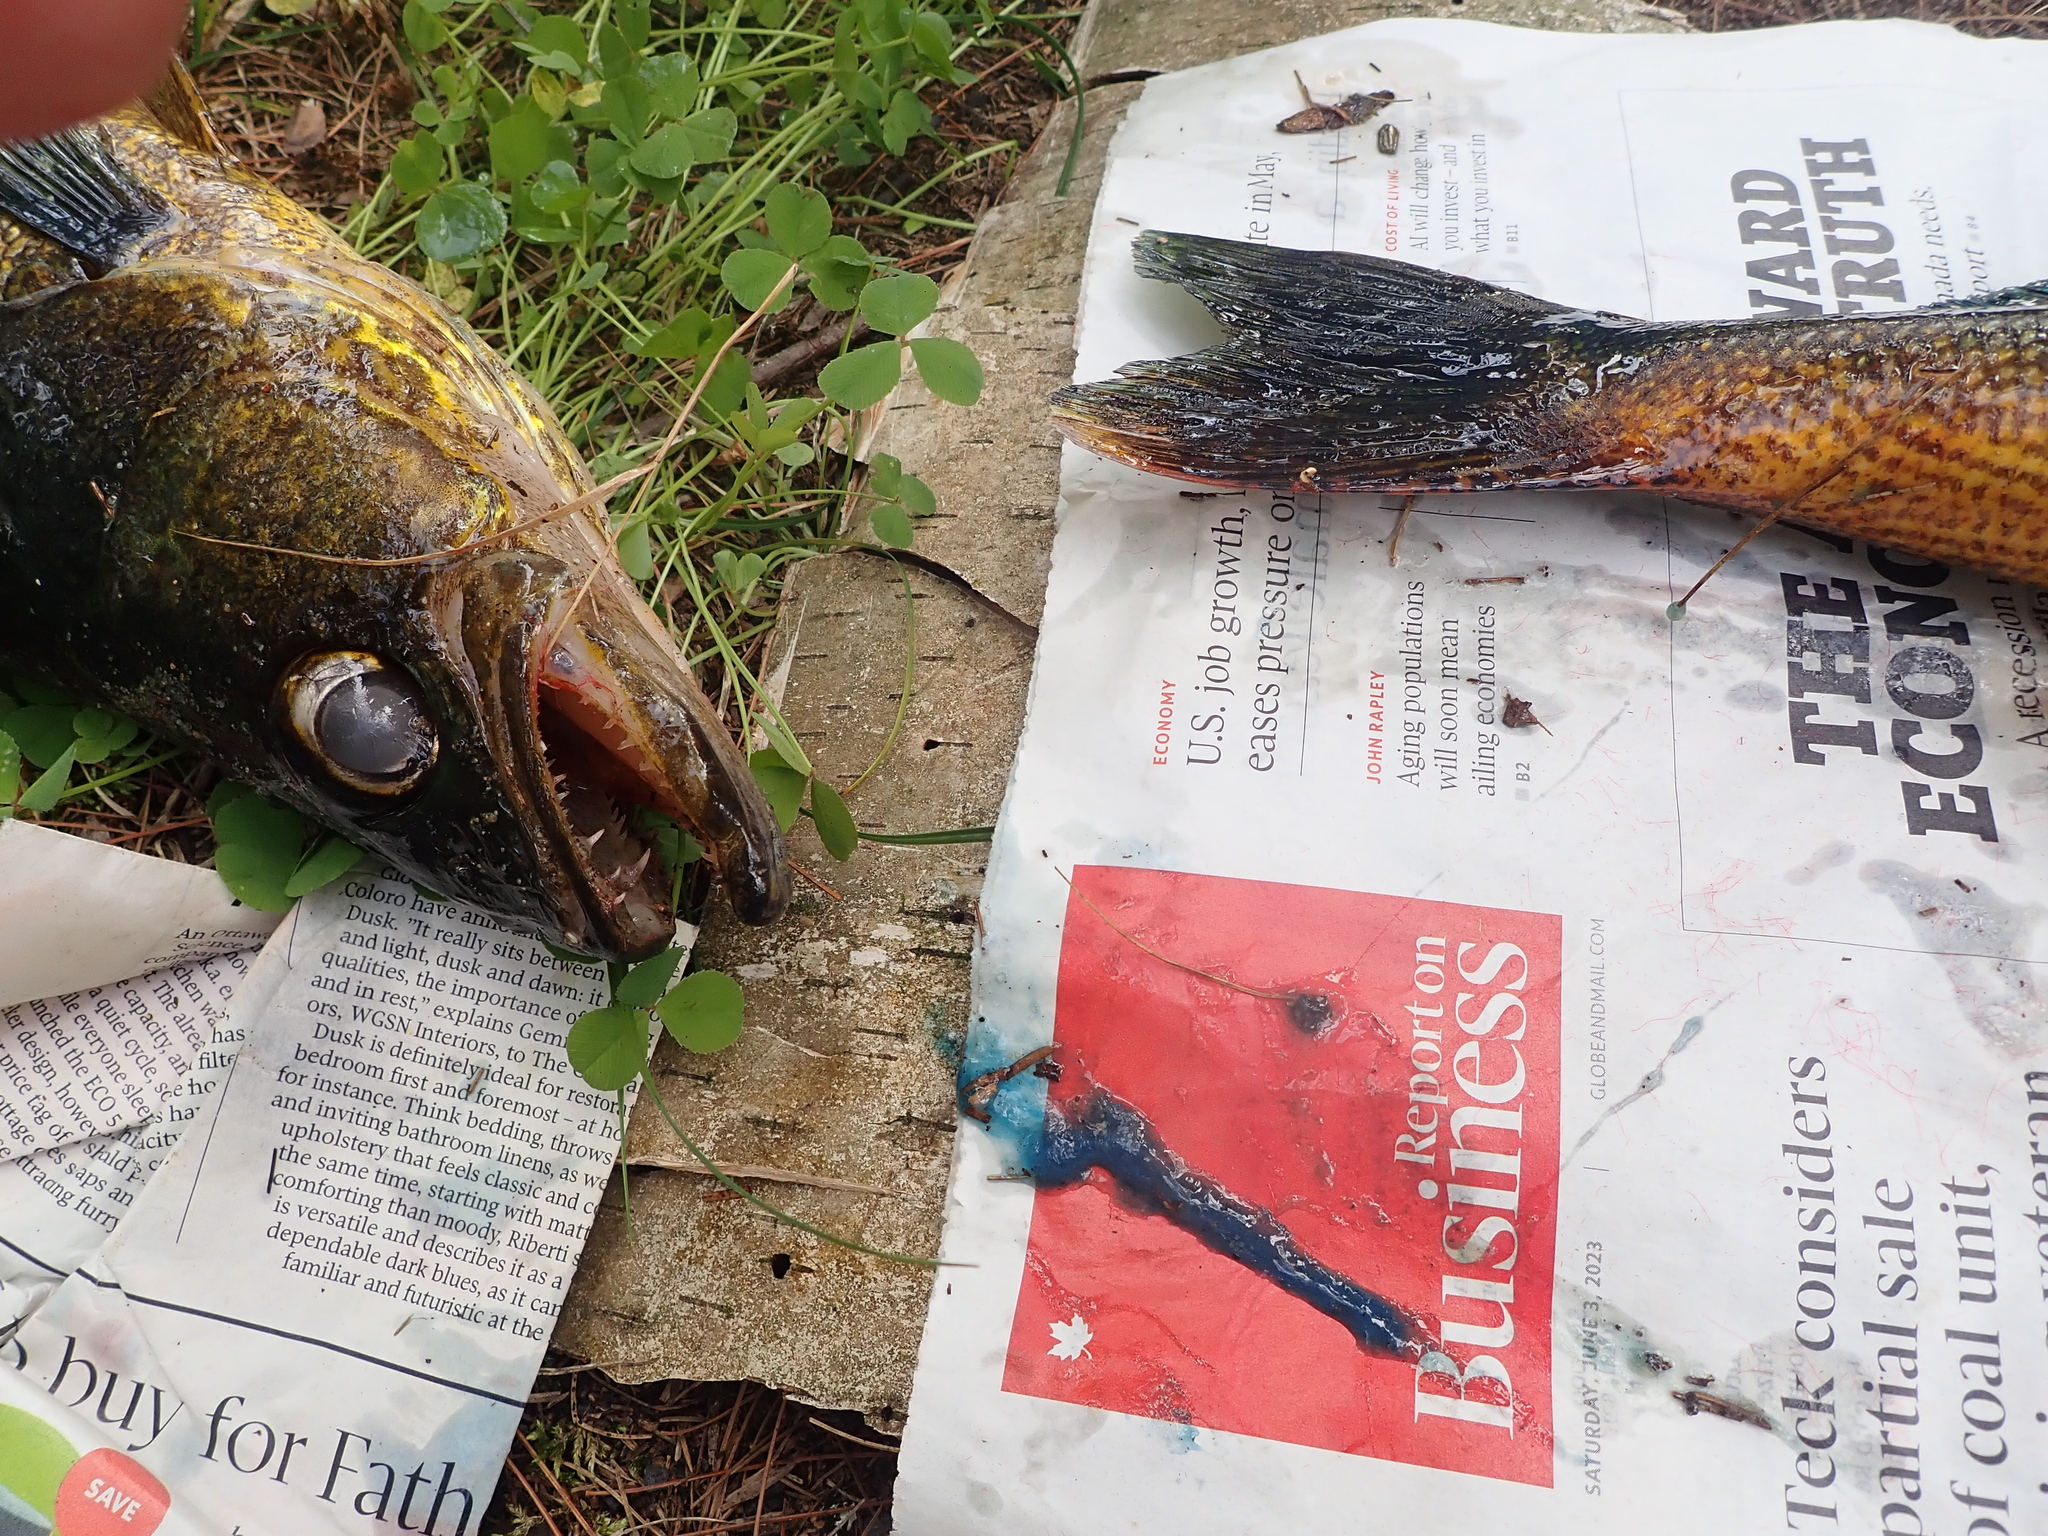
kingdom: Animalia
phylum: Chordata
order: Perciformes
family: Percidae
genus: Sander
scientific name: Sander vitreus
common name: Walleye
